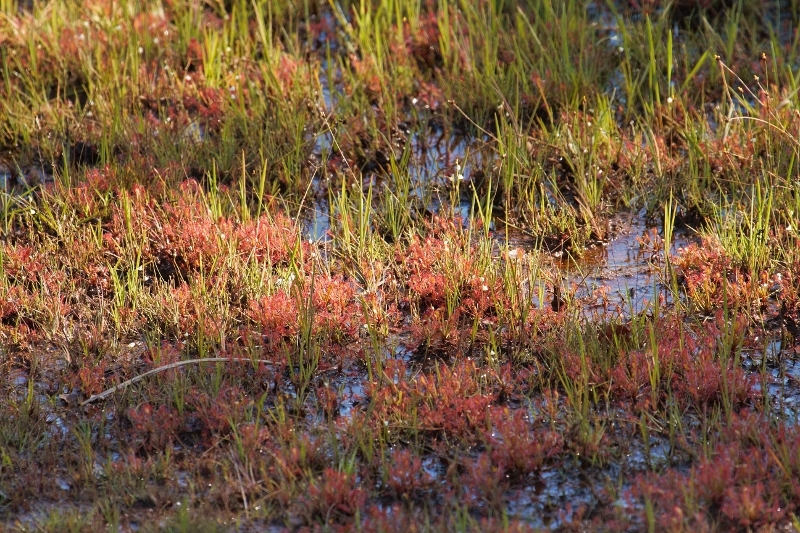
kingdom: Plantae
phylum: Tracheophyta
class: Magnoliopsida
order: Caryophyllales
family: Droseraceae
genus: Drosera
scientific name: Drosera madagascariensis
